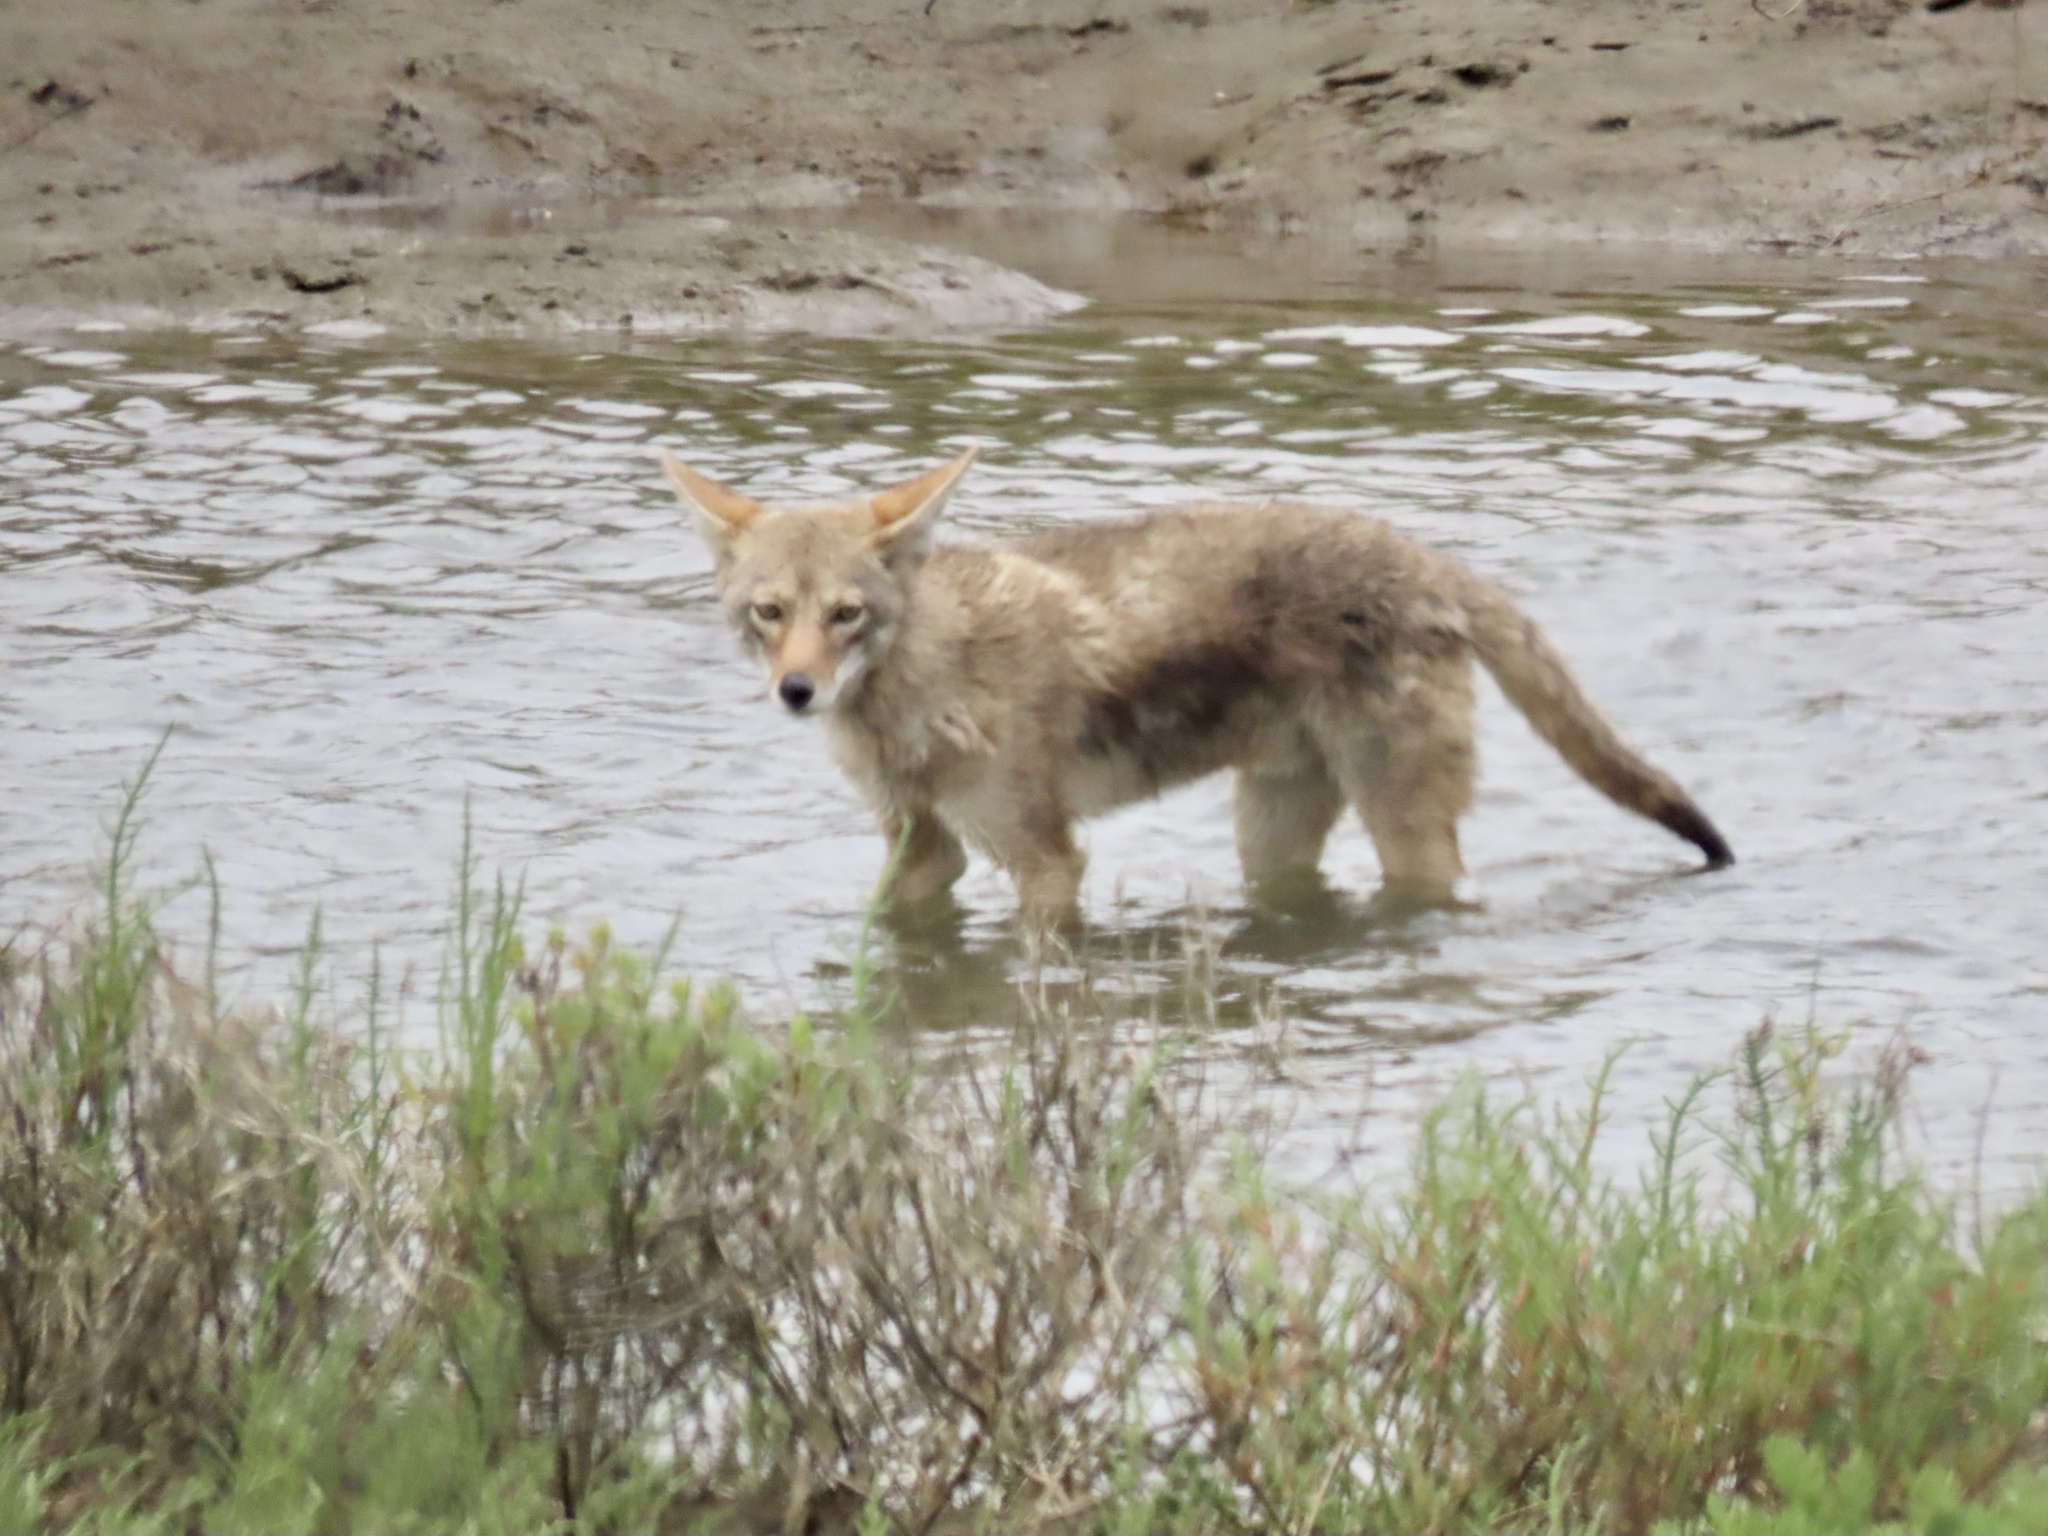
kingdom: Animalia
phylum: Chordata
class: Mammalia
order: Carnivora
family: Canidae
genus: Canis
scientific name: Canis latrans
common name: Coyote
